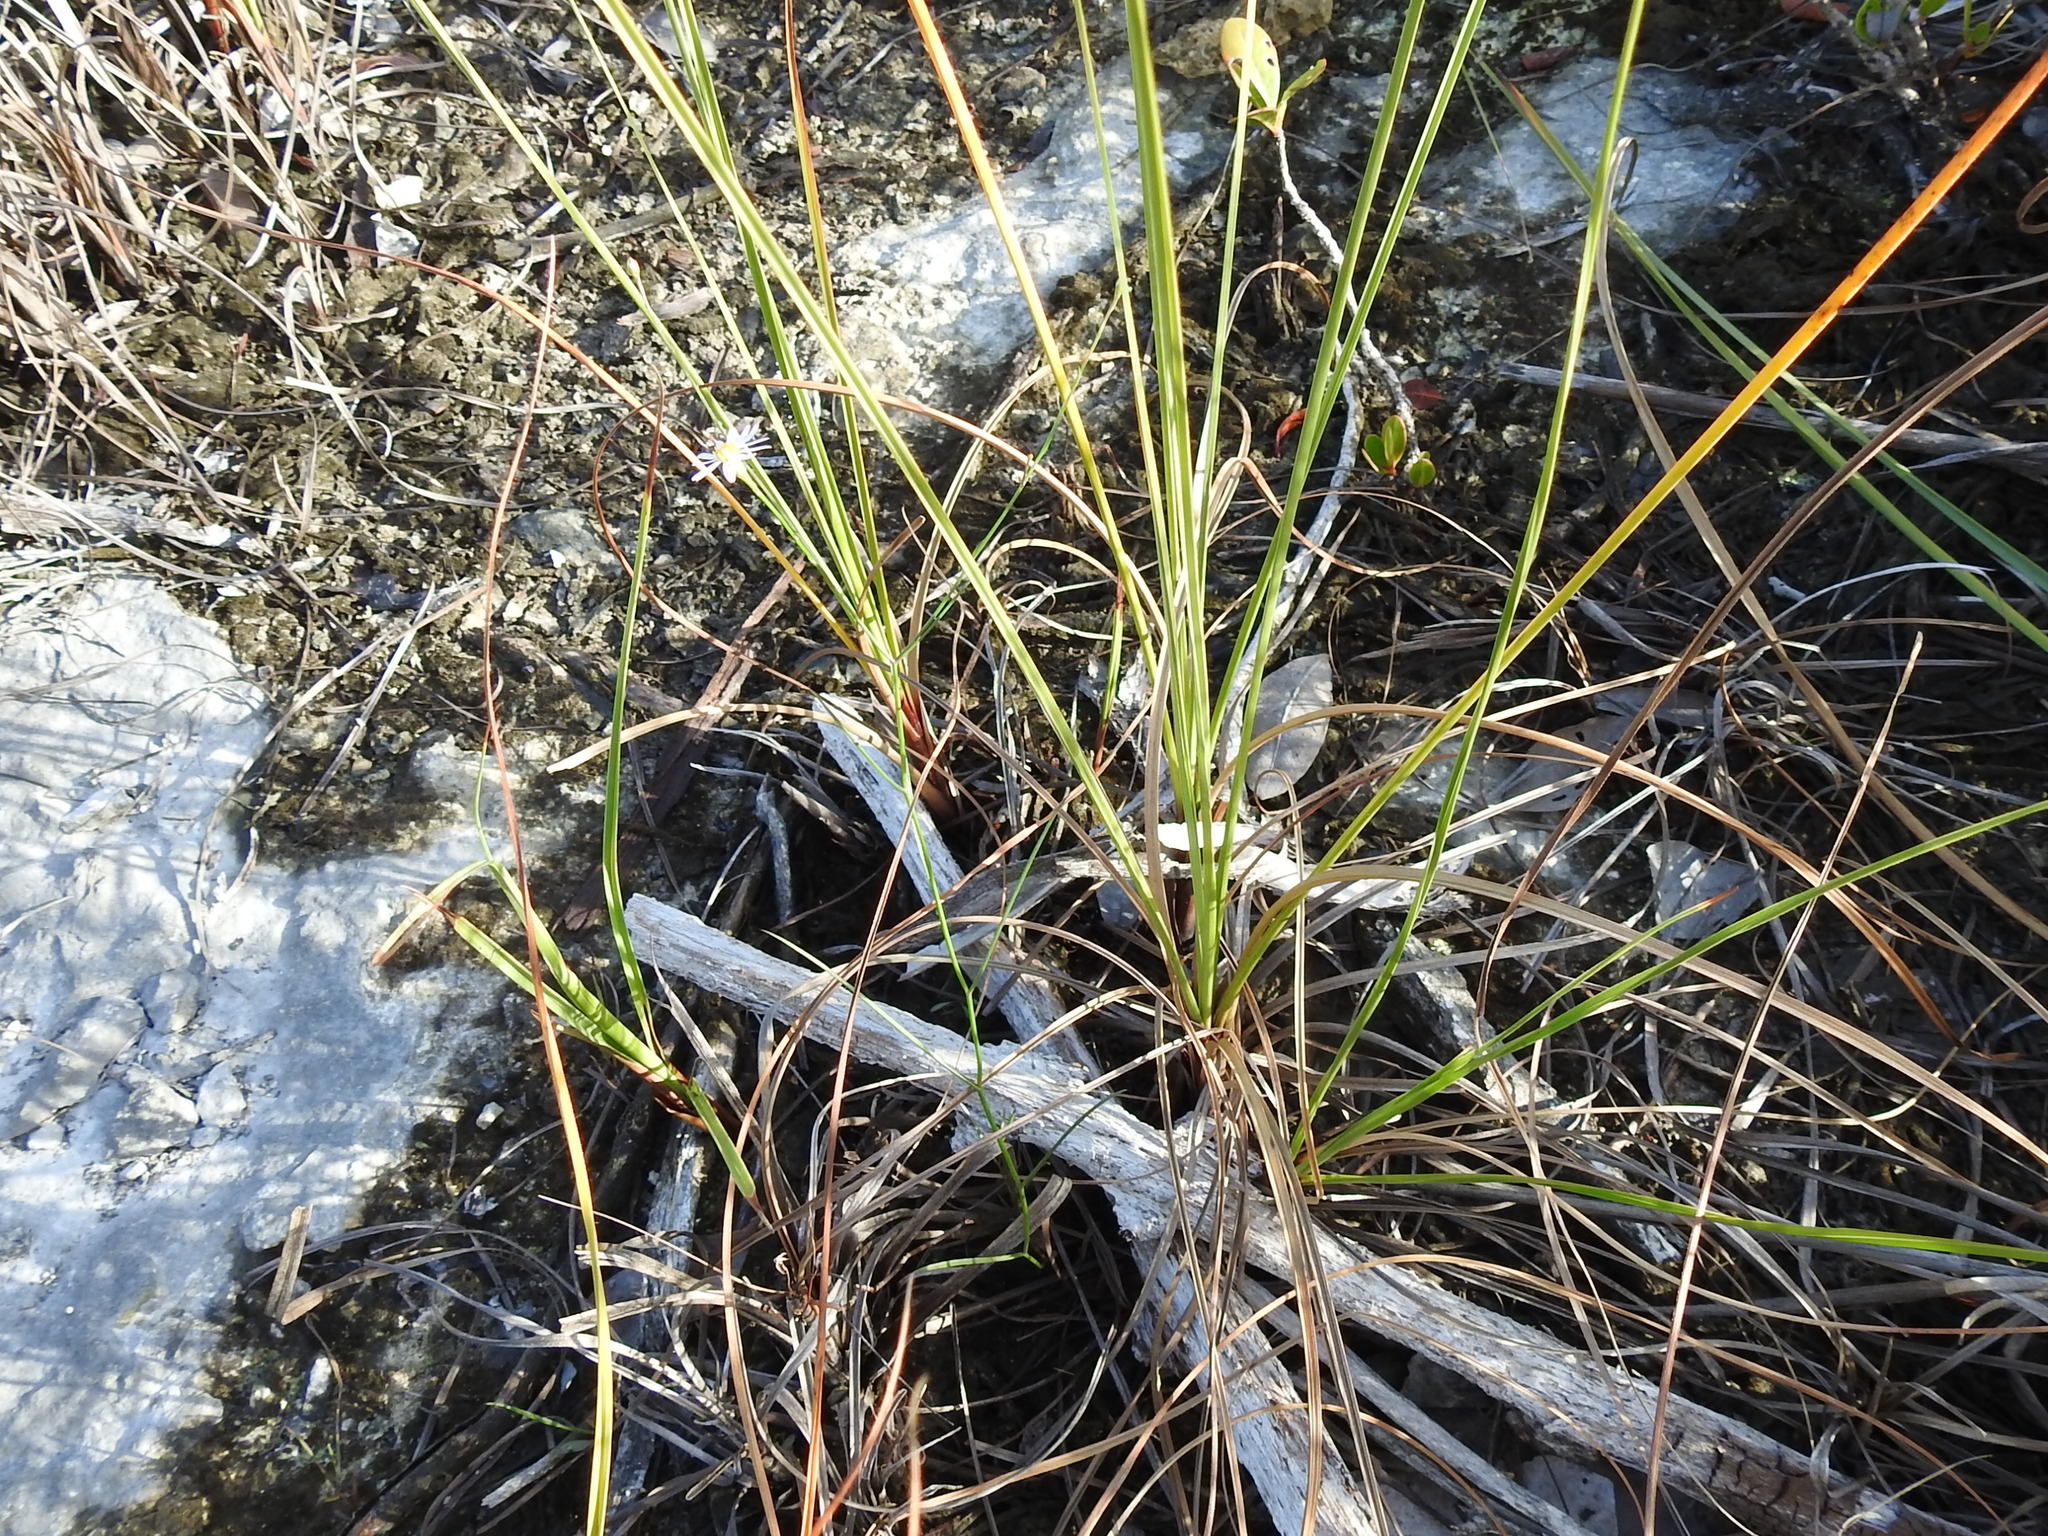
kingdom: Plantae
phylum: Tracheophyta
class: Magnoliopsida
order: Asterales
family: Asteraceae
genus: Symphyotrichum
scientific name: Symphyotrichum tenuifolium
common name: Perennial salt-marsh aster
